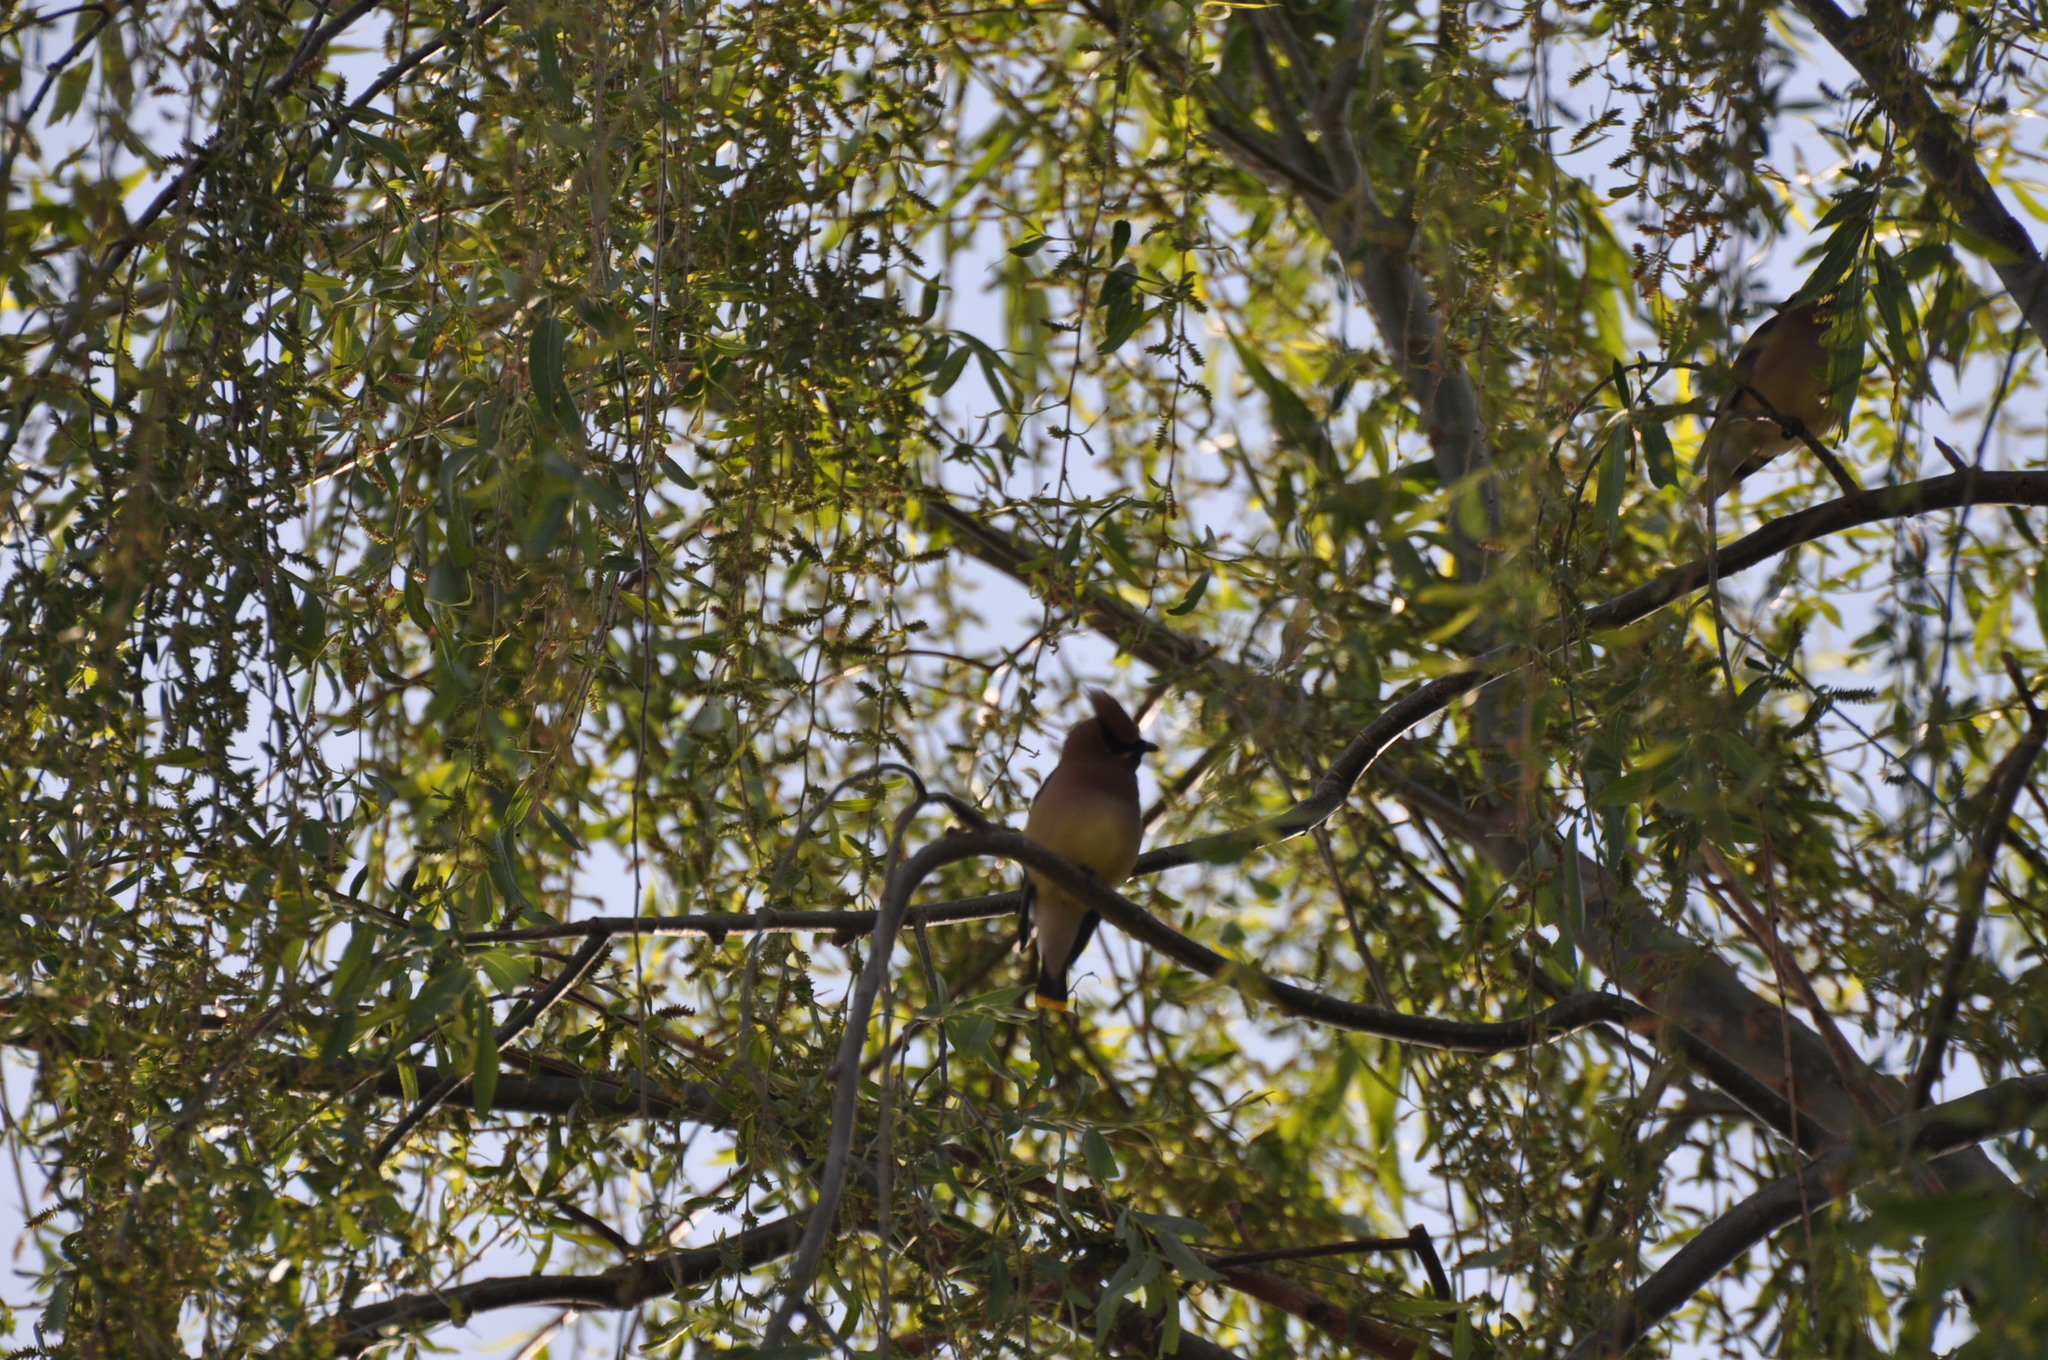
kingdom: Animalia
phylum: Chordata
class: Aves
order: Passeriformes
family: Bombycillidae
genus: Bombycilla
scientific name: Bombycilla cedrorum
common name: Cedar waxwing
